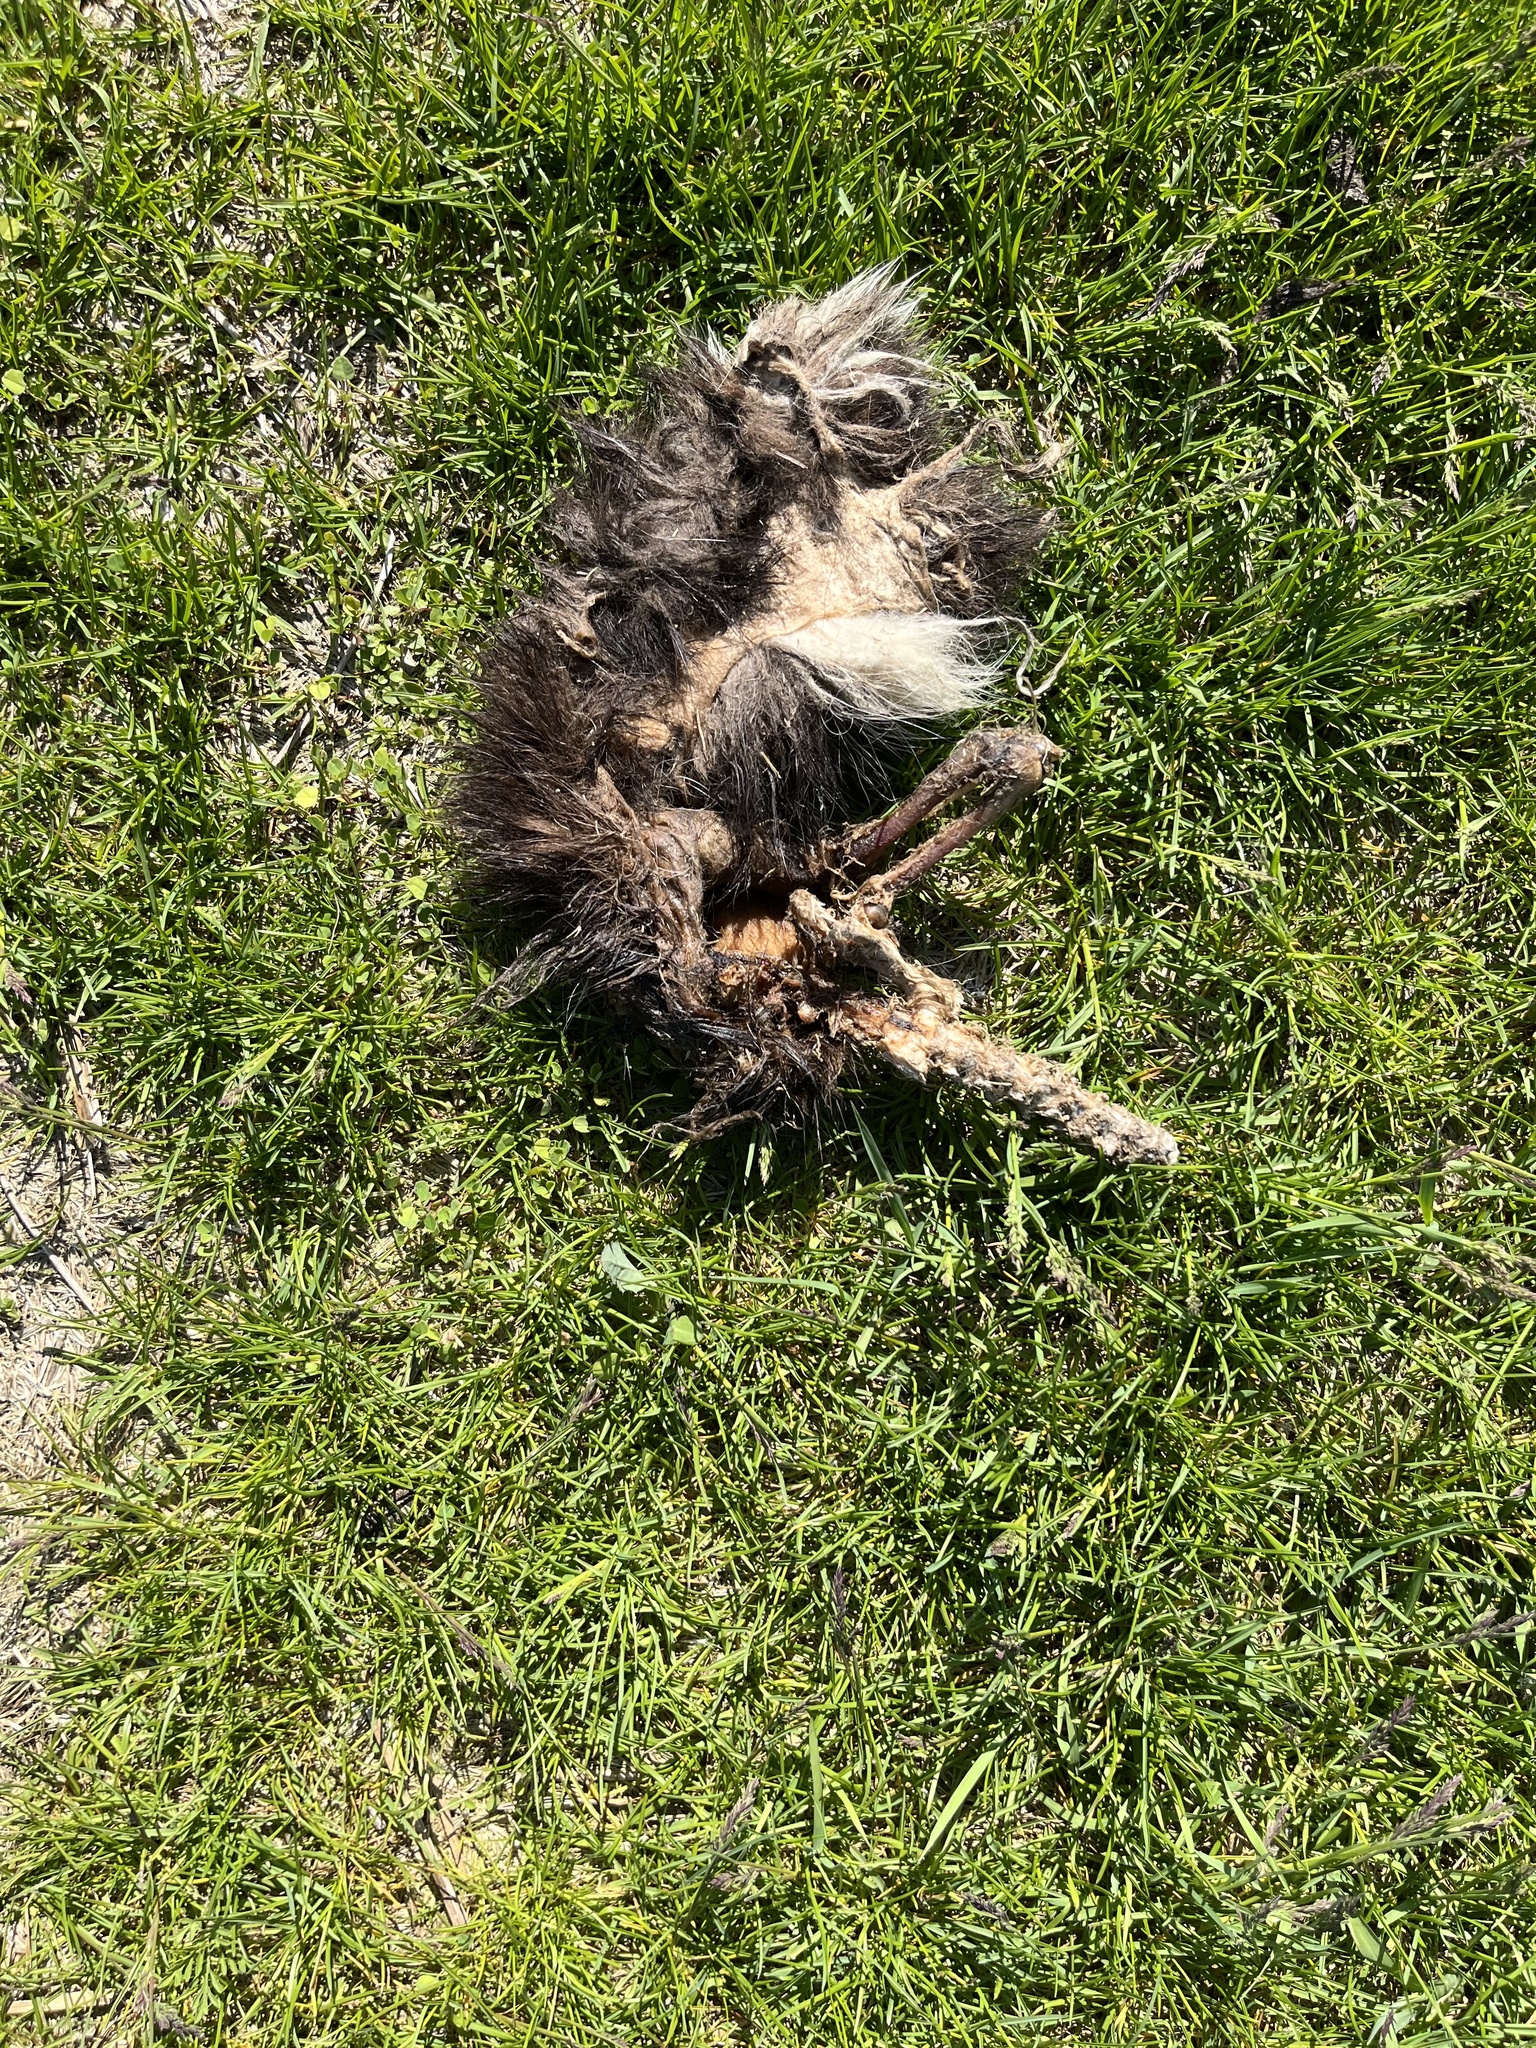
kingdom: Animalia
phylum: Chordata
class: Mammalia
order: Carnivora
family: Mephitidae
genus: Mephitis
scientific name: Mephitis mephitis
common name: Striped skunk
